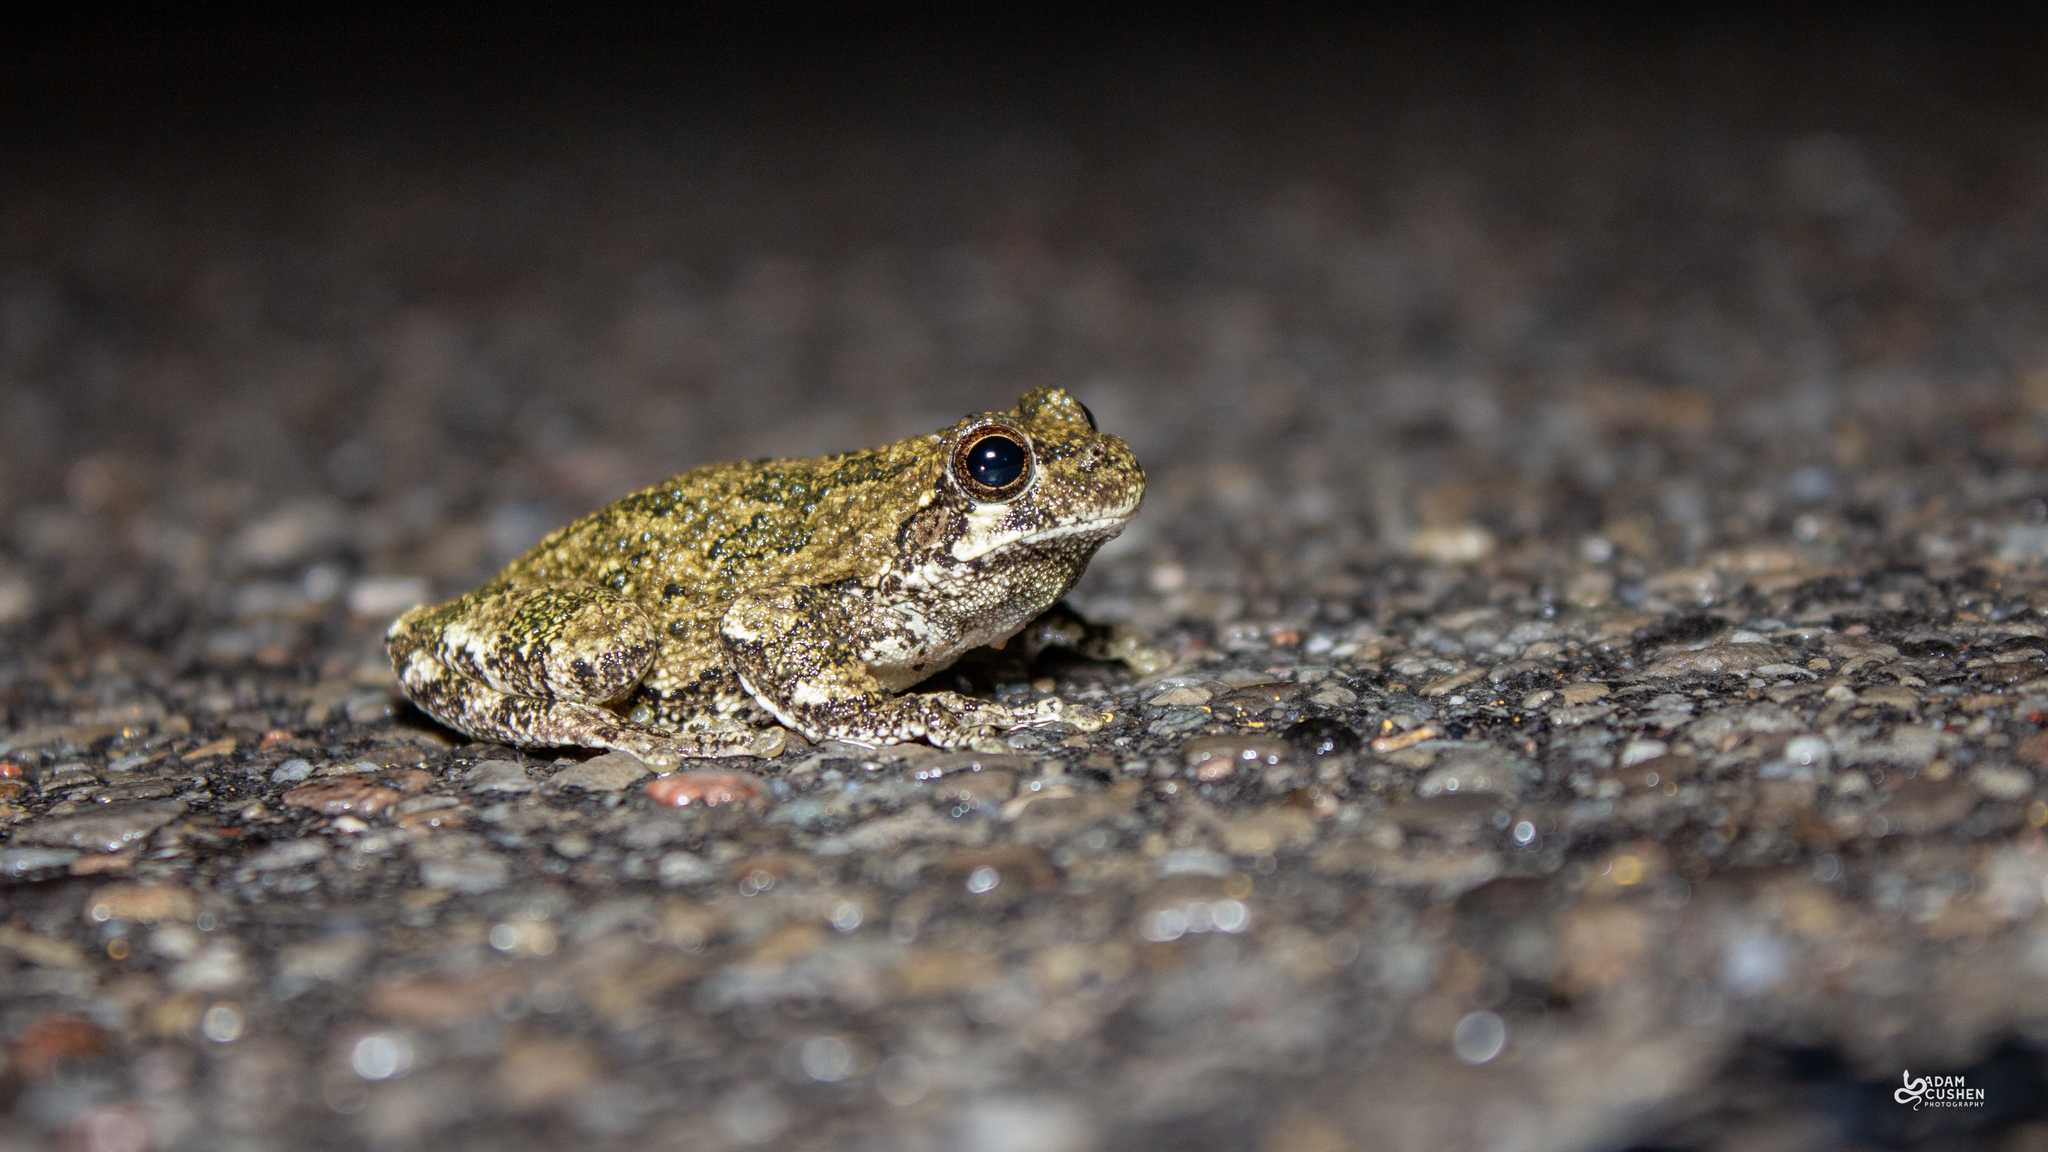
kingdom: Animalia
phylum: Chordata
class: Amphibia
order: Anura
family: Hylidae
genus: Dryophytes
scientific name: Dryophytes versicolor
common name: Gray treefrog
